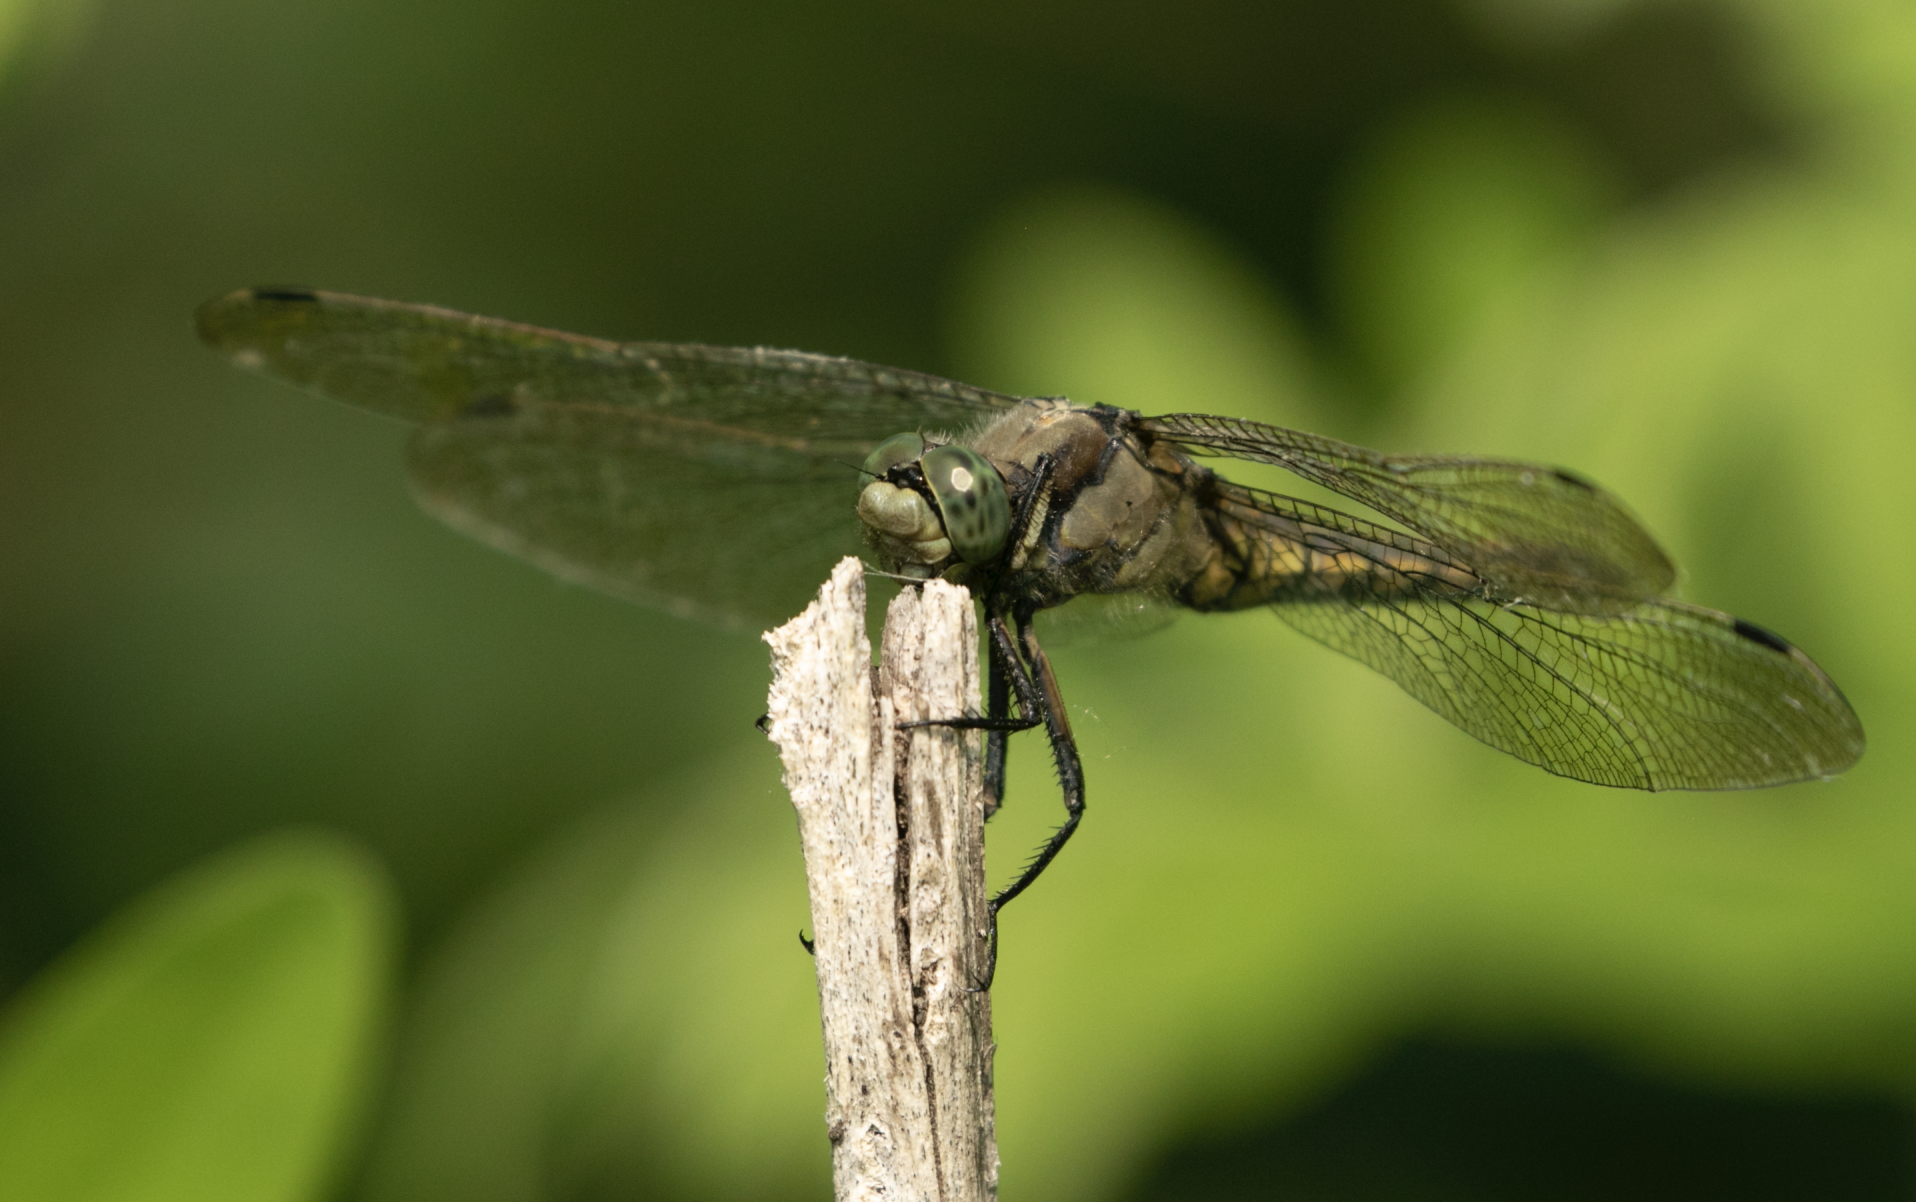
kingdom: Animalia
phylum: Arthropoda
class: Insecta
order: Odonata
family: Libellulidae
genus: Orthetrum
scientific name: Orthetrum cancellatum
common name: Black-tailed skimmer
